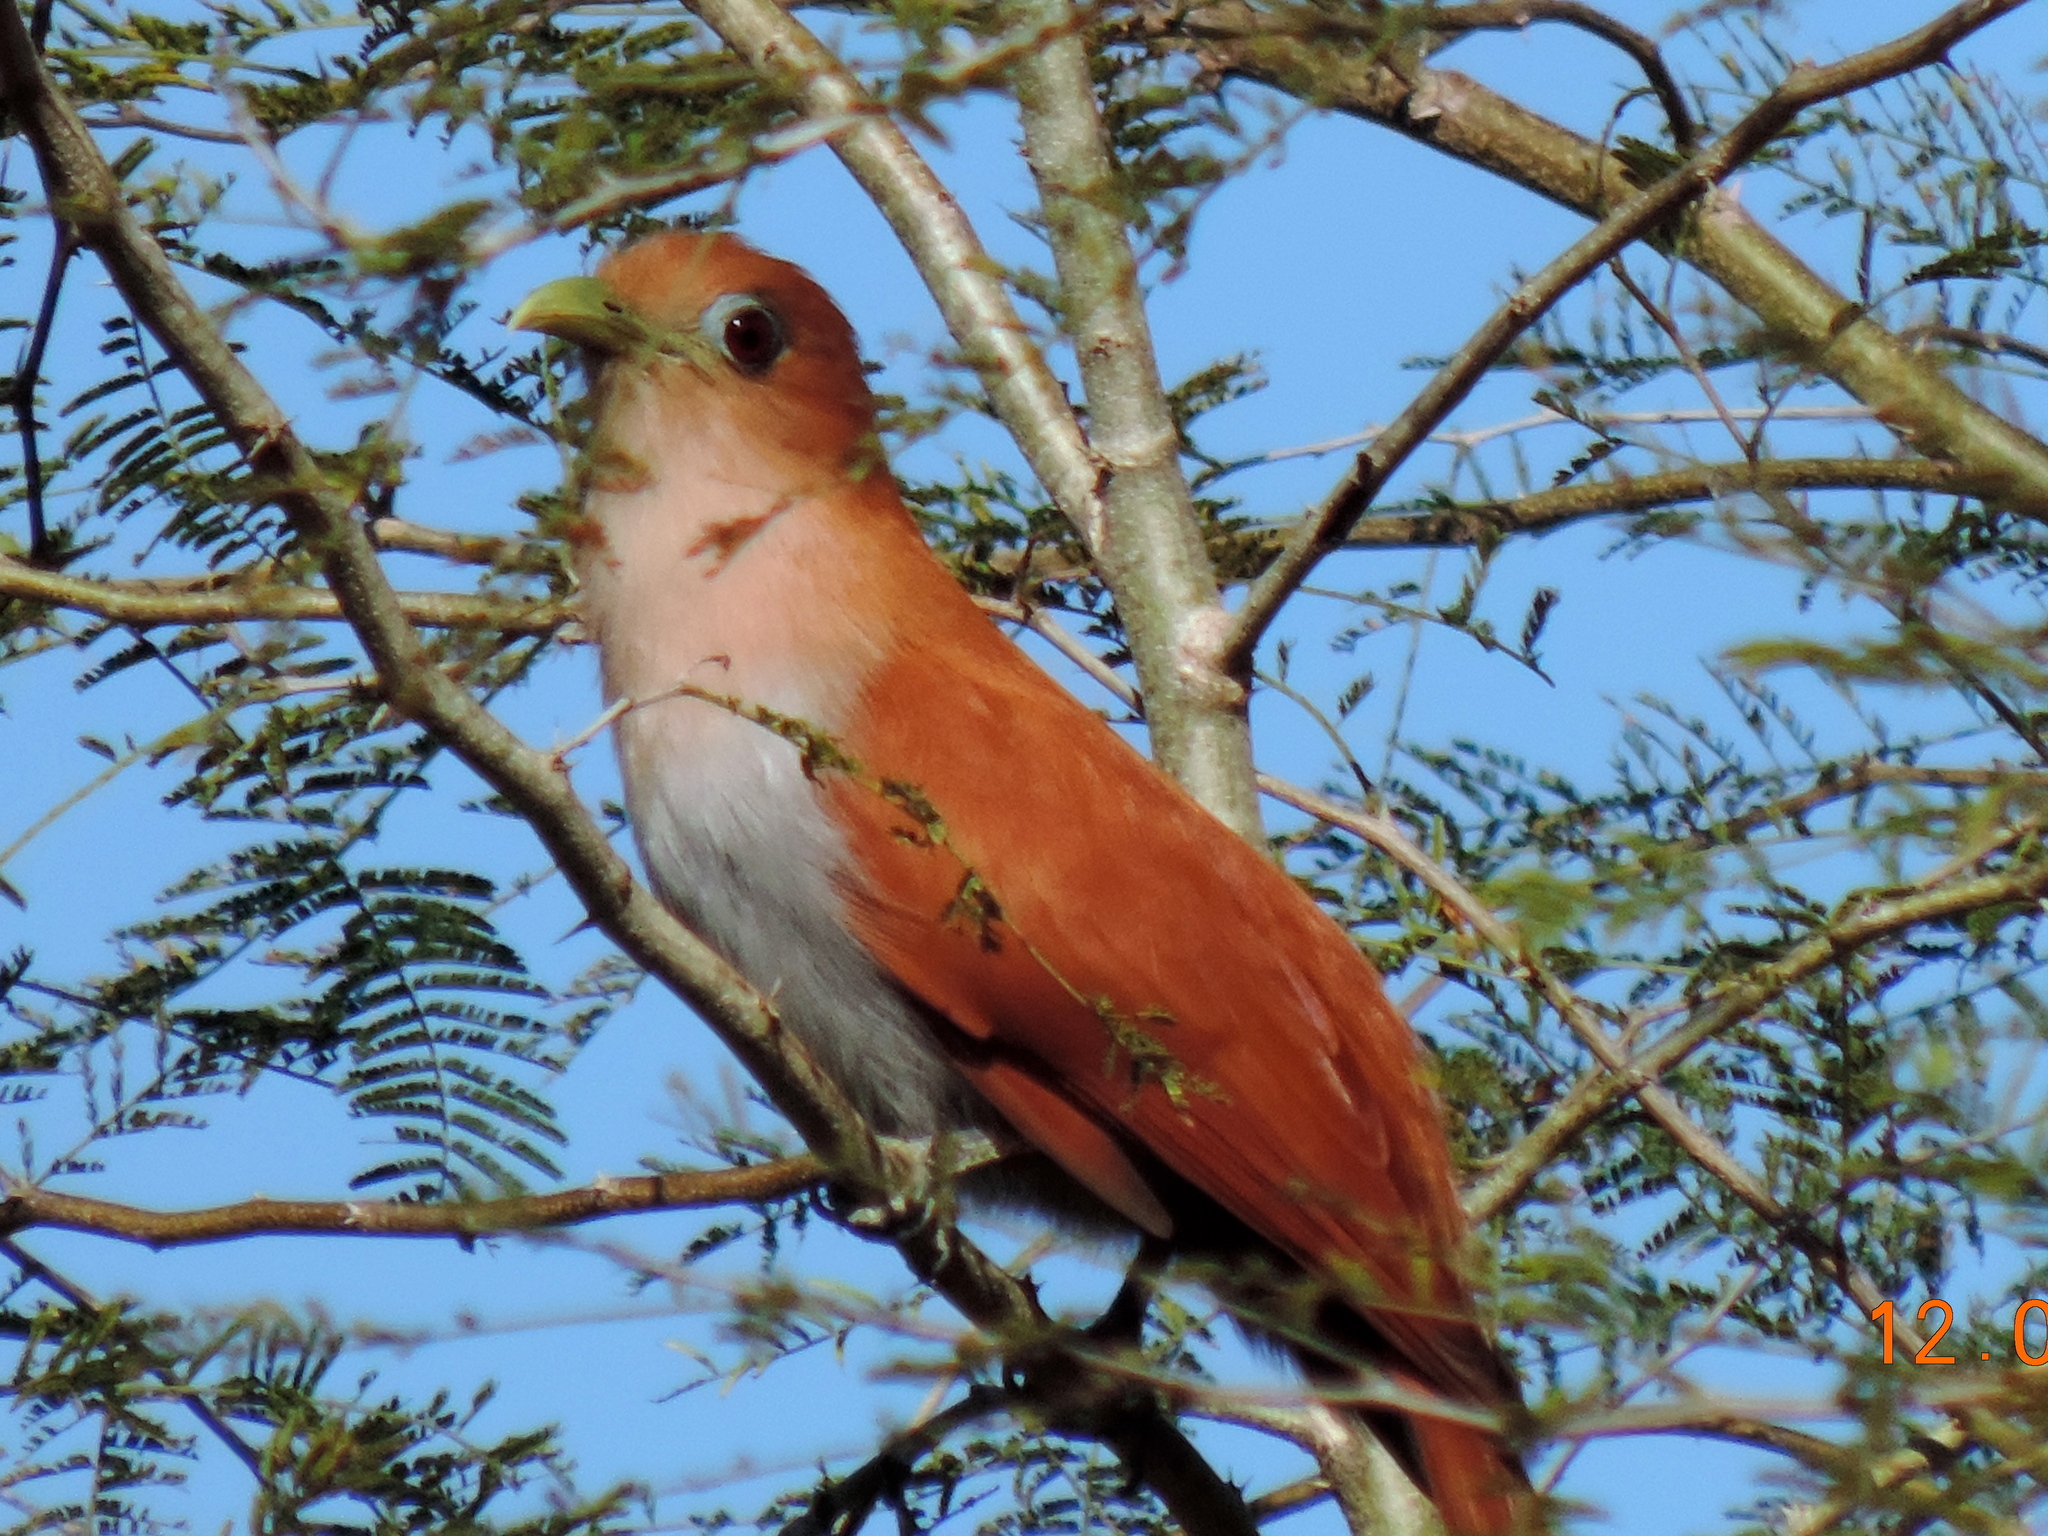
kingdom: Animalia
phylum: Chordata
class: Aves
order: Cuculiformes
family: Cuculidae
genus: Piaya
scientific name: Piaya cayana
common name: Squirrel cuckoo
